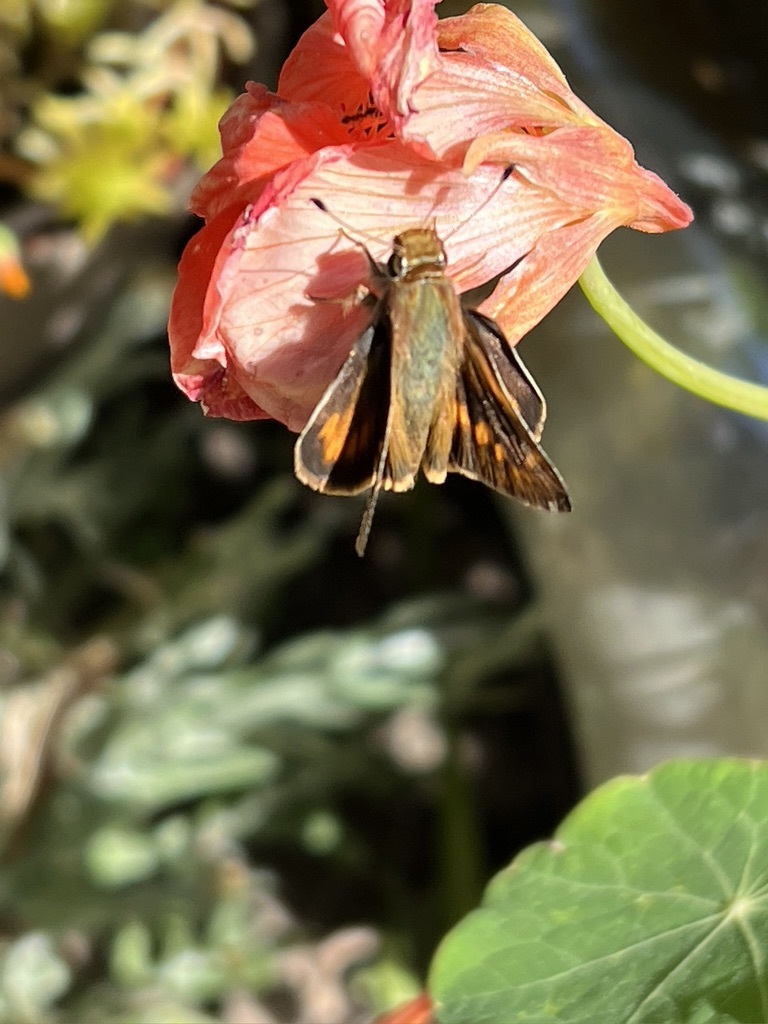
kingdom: Animalia
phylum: Arthropoda
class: Insecta
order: Lepidoptera
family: Hesperiidae
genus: Lon
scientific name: Lon melane
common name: Umber skipper
